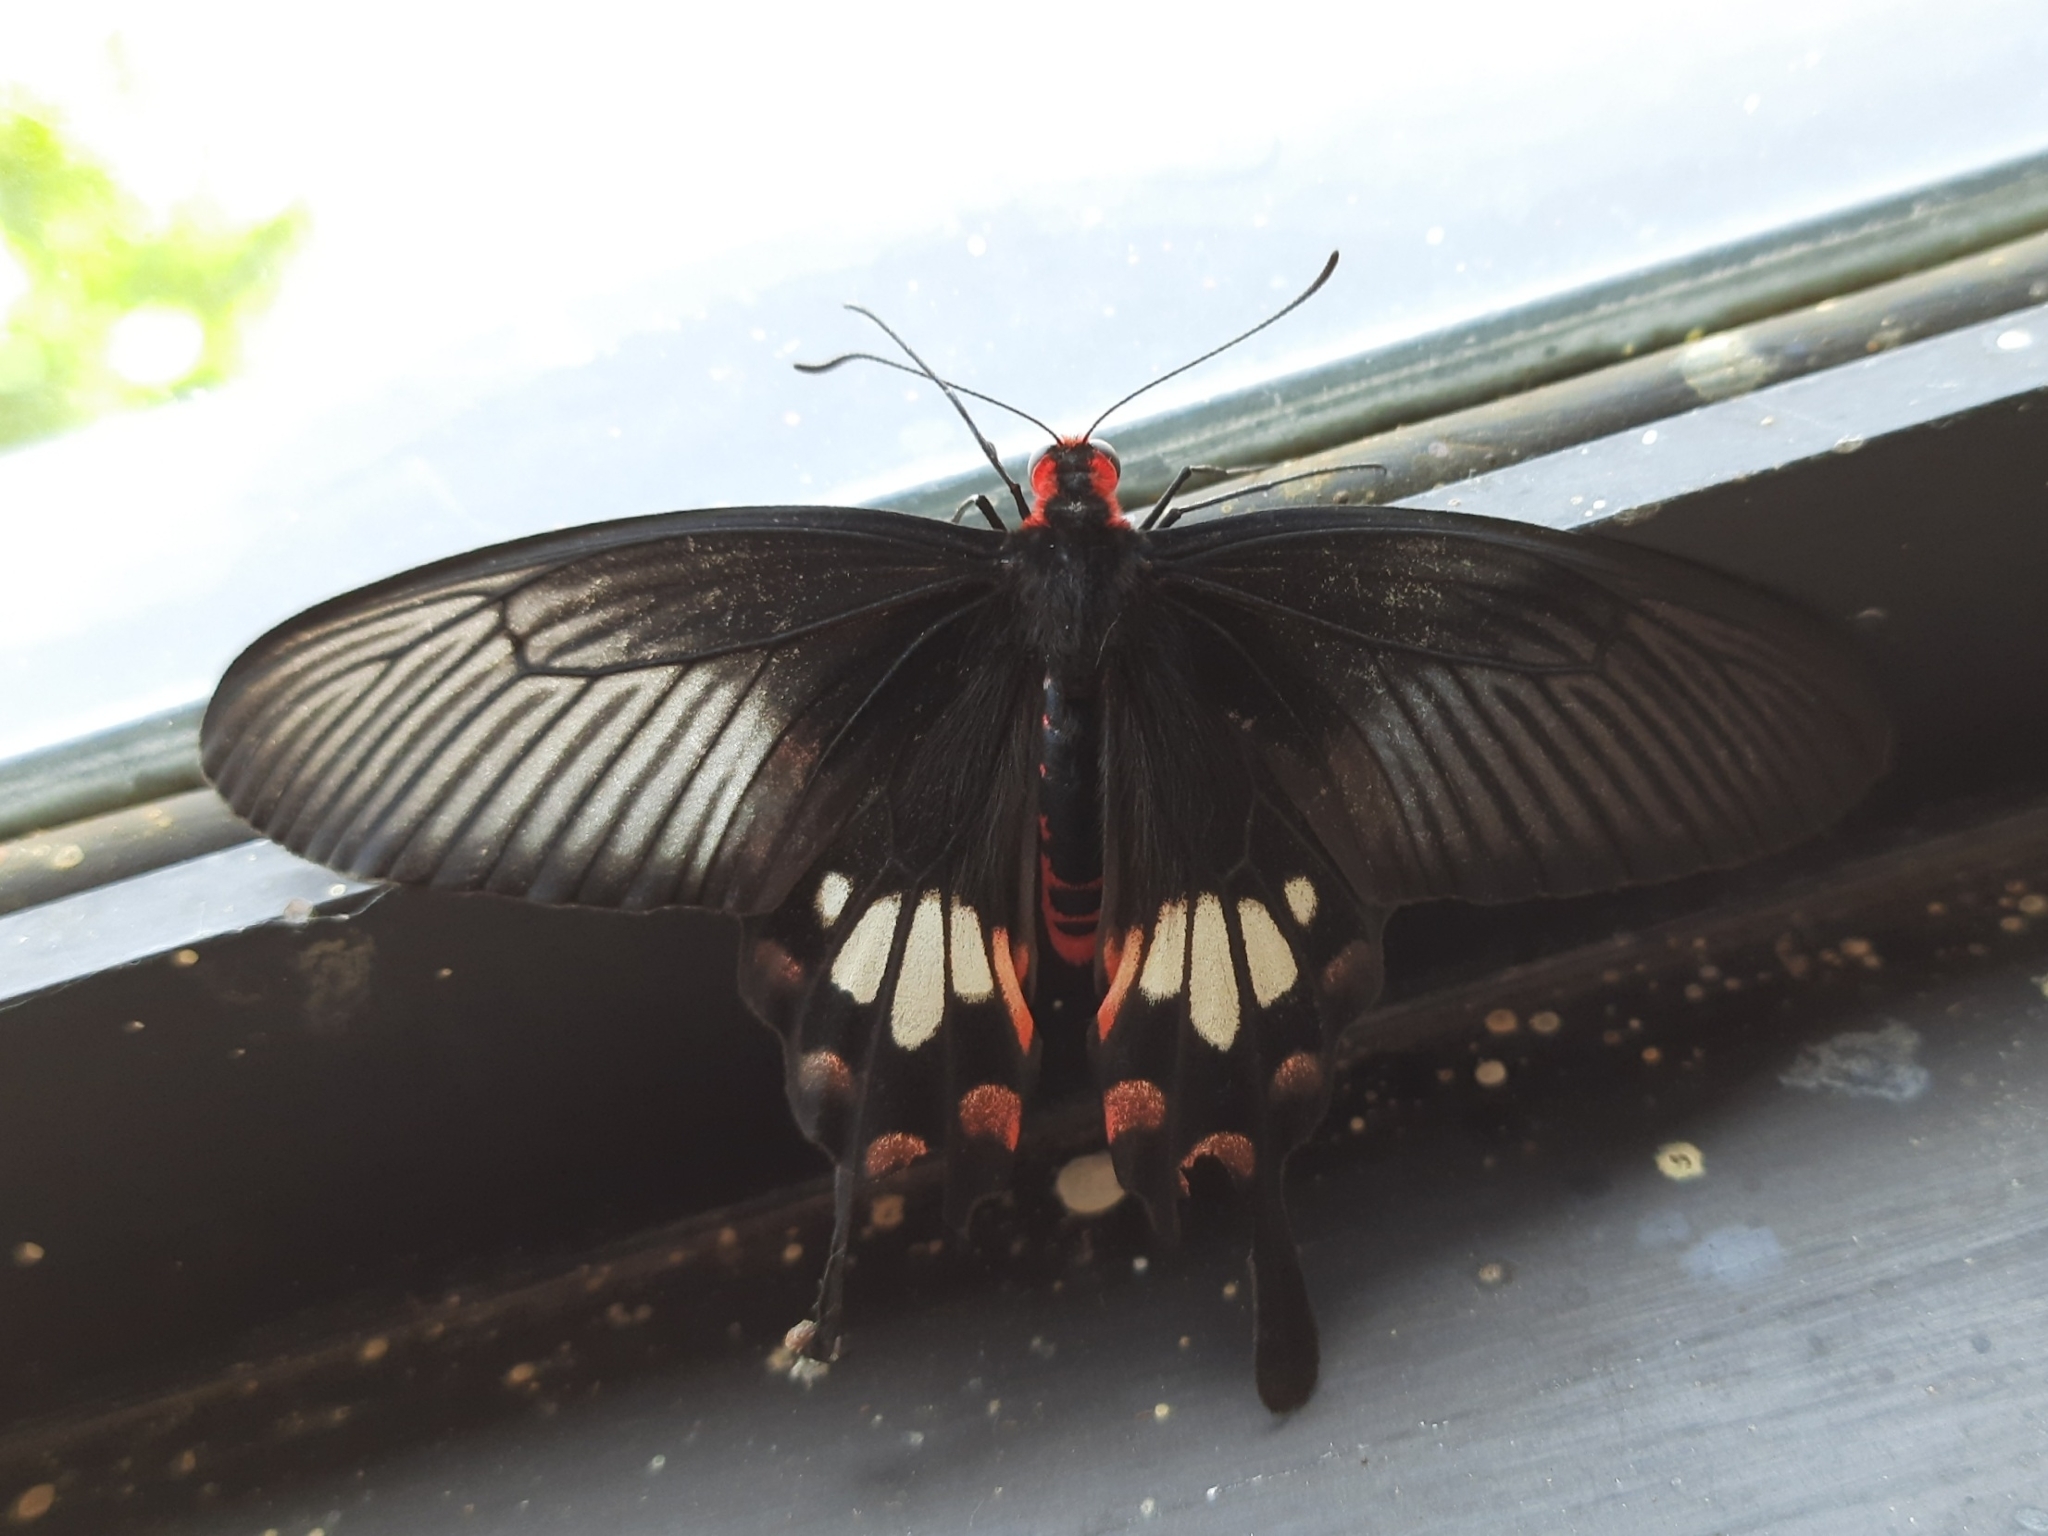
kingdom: Animalia
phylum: Arthropoda
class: Insecta
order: Lepidoptera
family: Papilionidae
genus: Pachliopta
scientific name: Pachliopta aristolochiae
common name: Common rose
